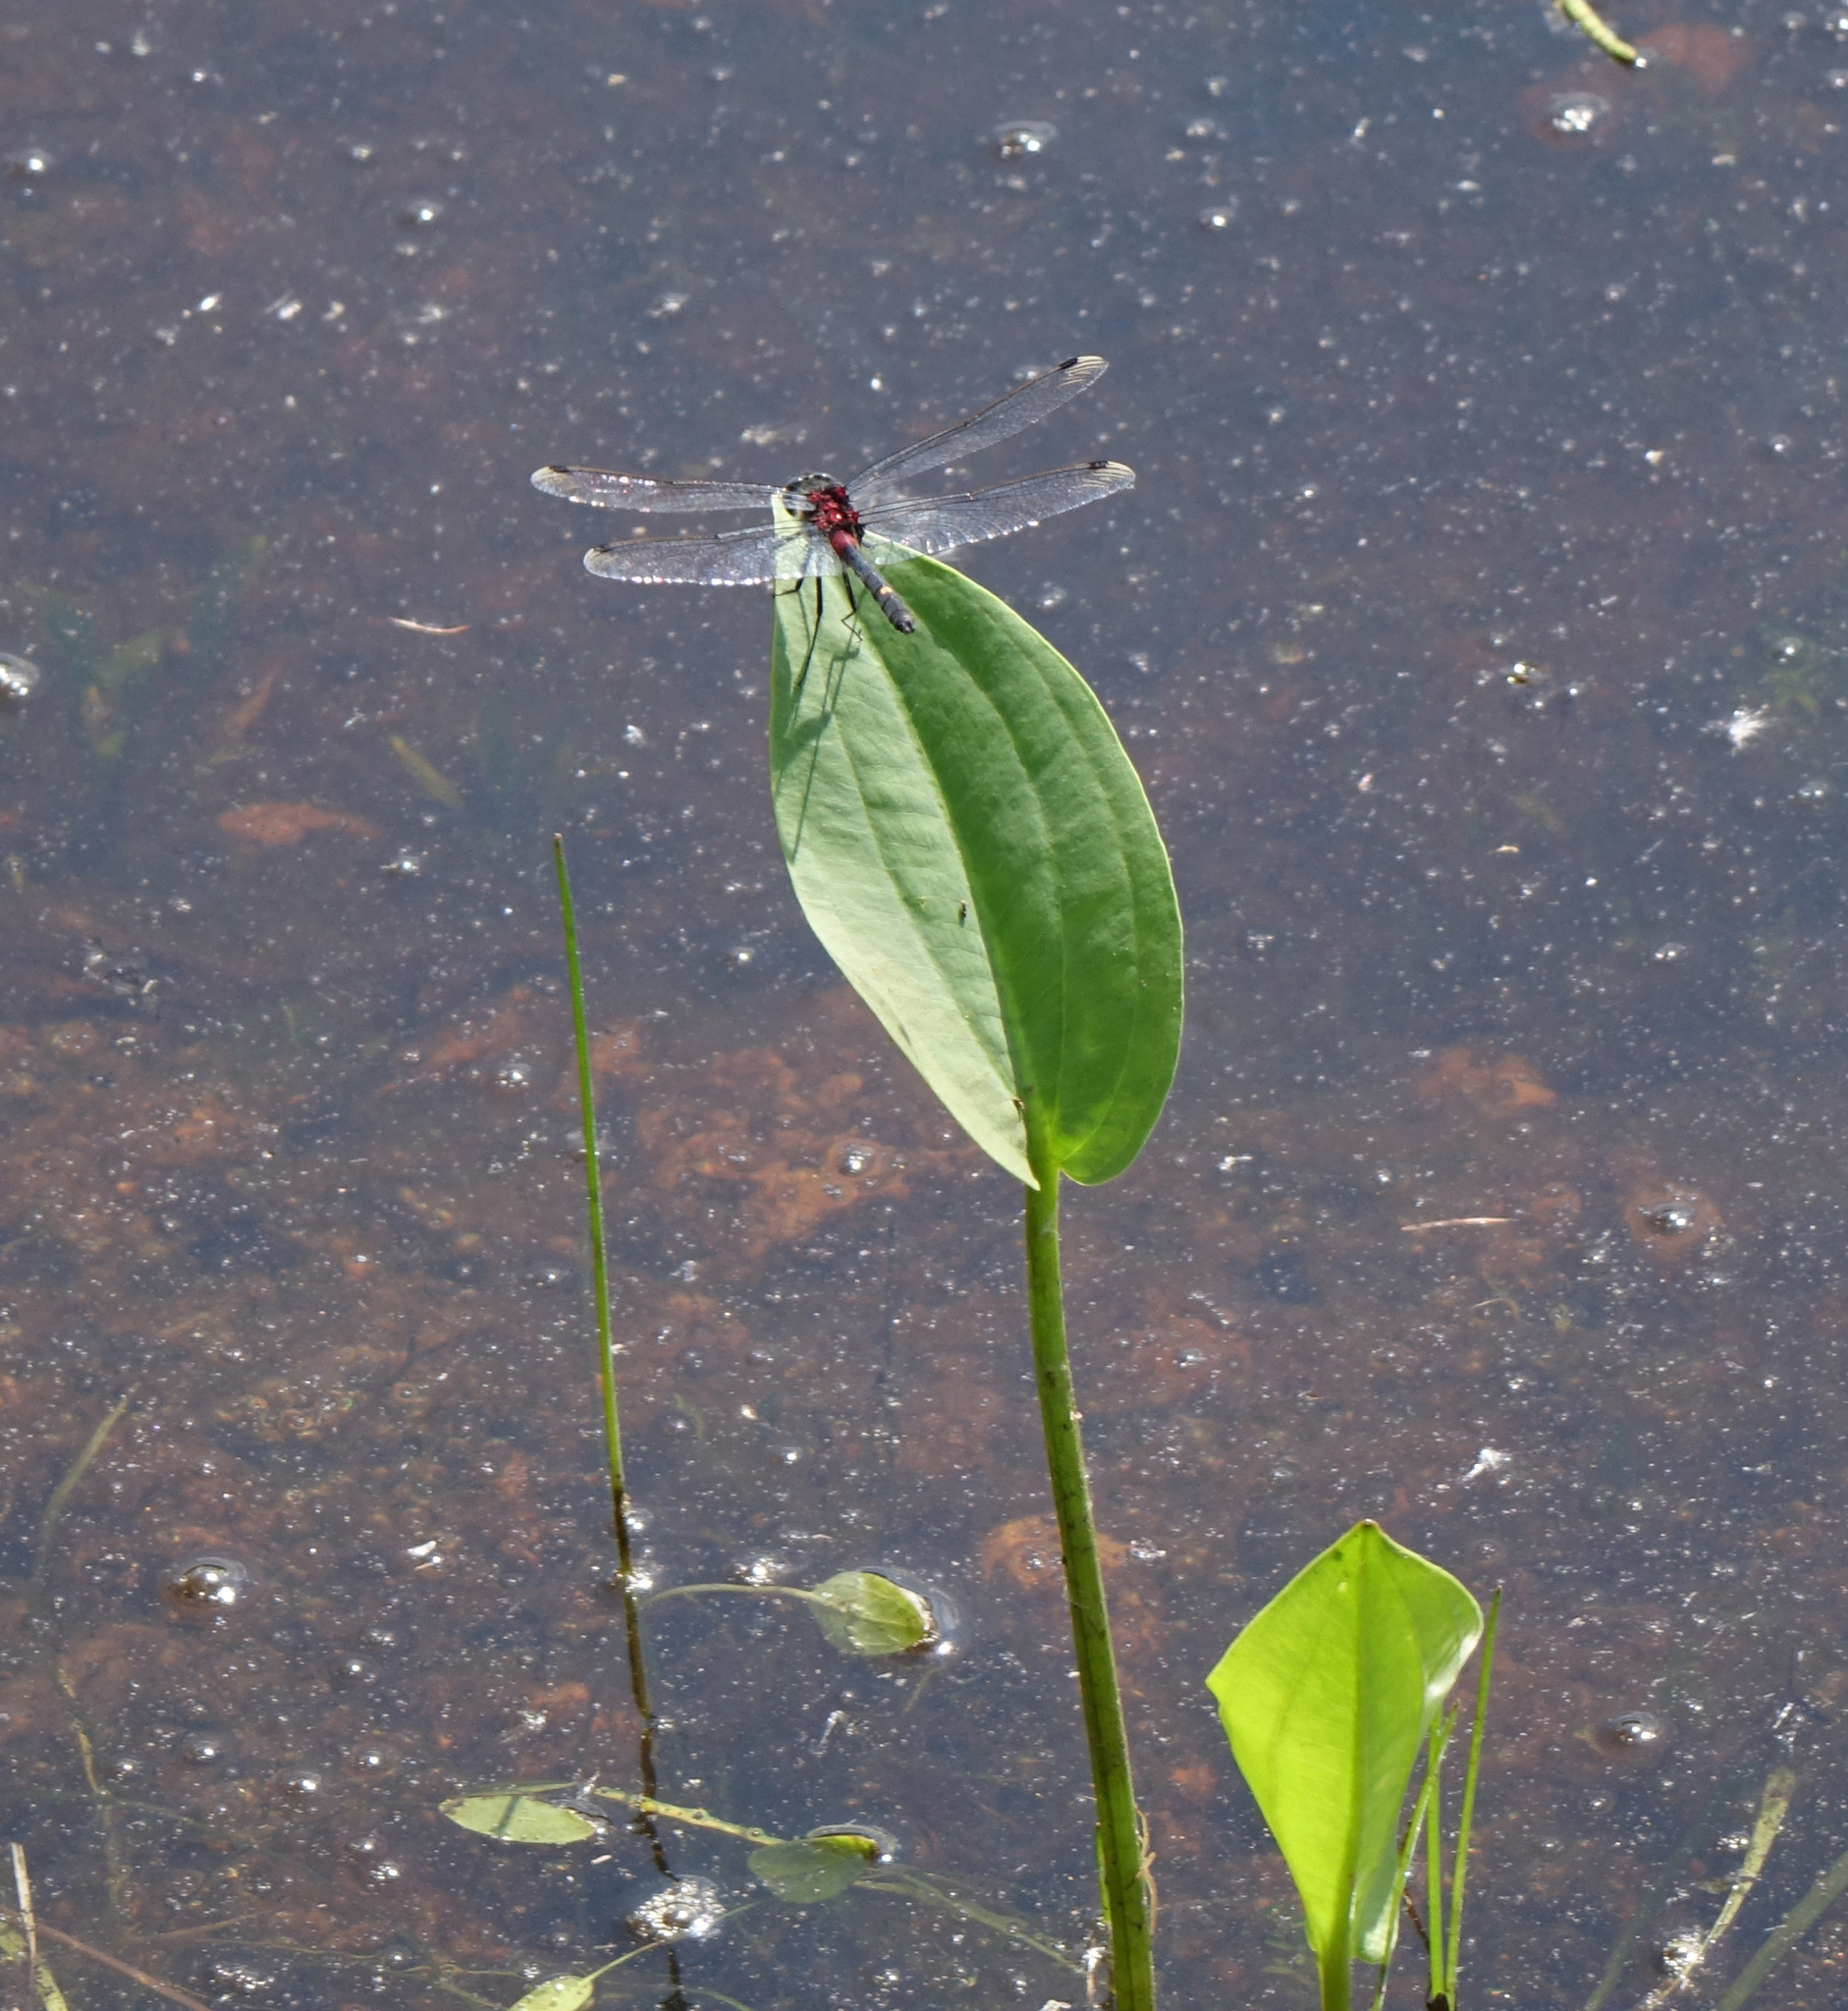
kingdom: Plantae
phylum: Tracheophyta
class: Liliopsida
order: Alismatales
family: Alismataceae
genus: Alisma
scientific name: Alisma plantago-aquatica
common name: Water-plantain
